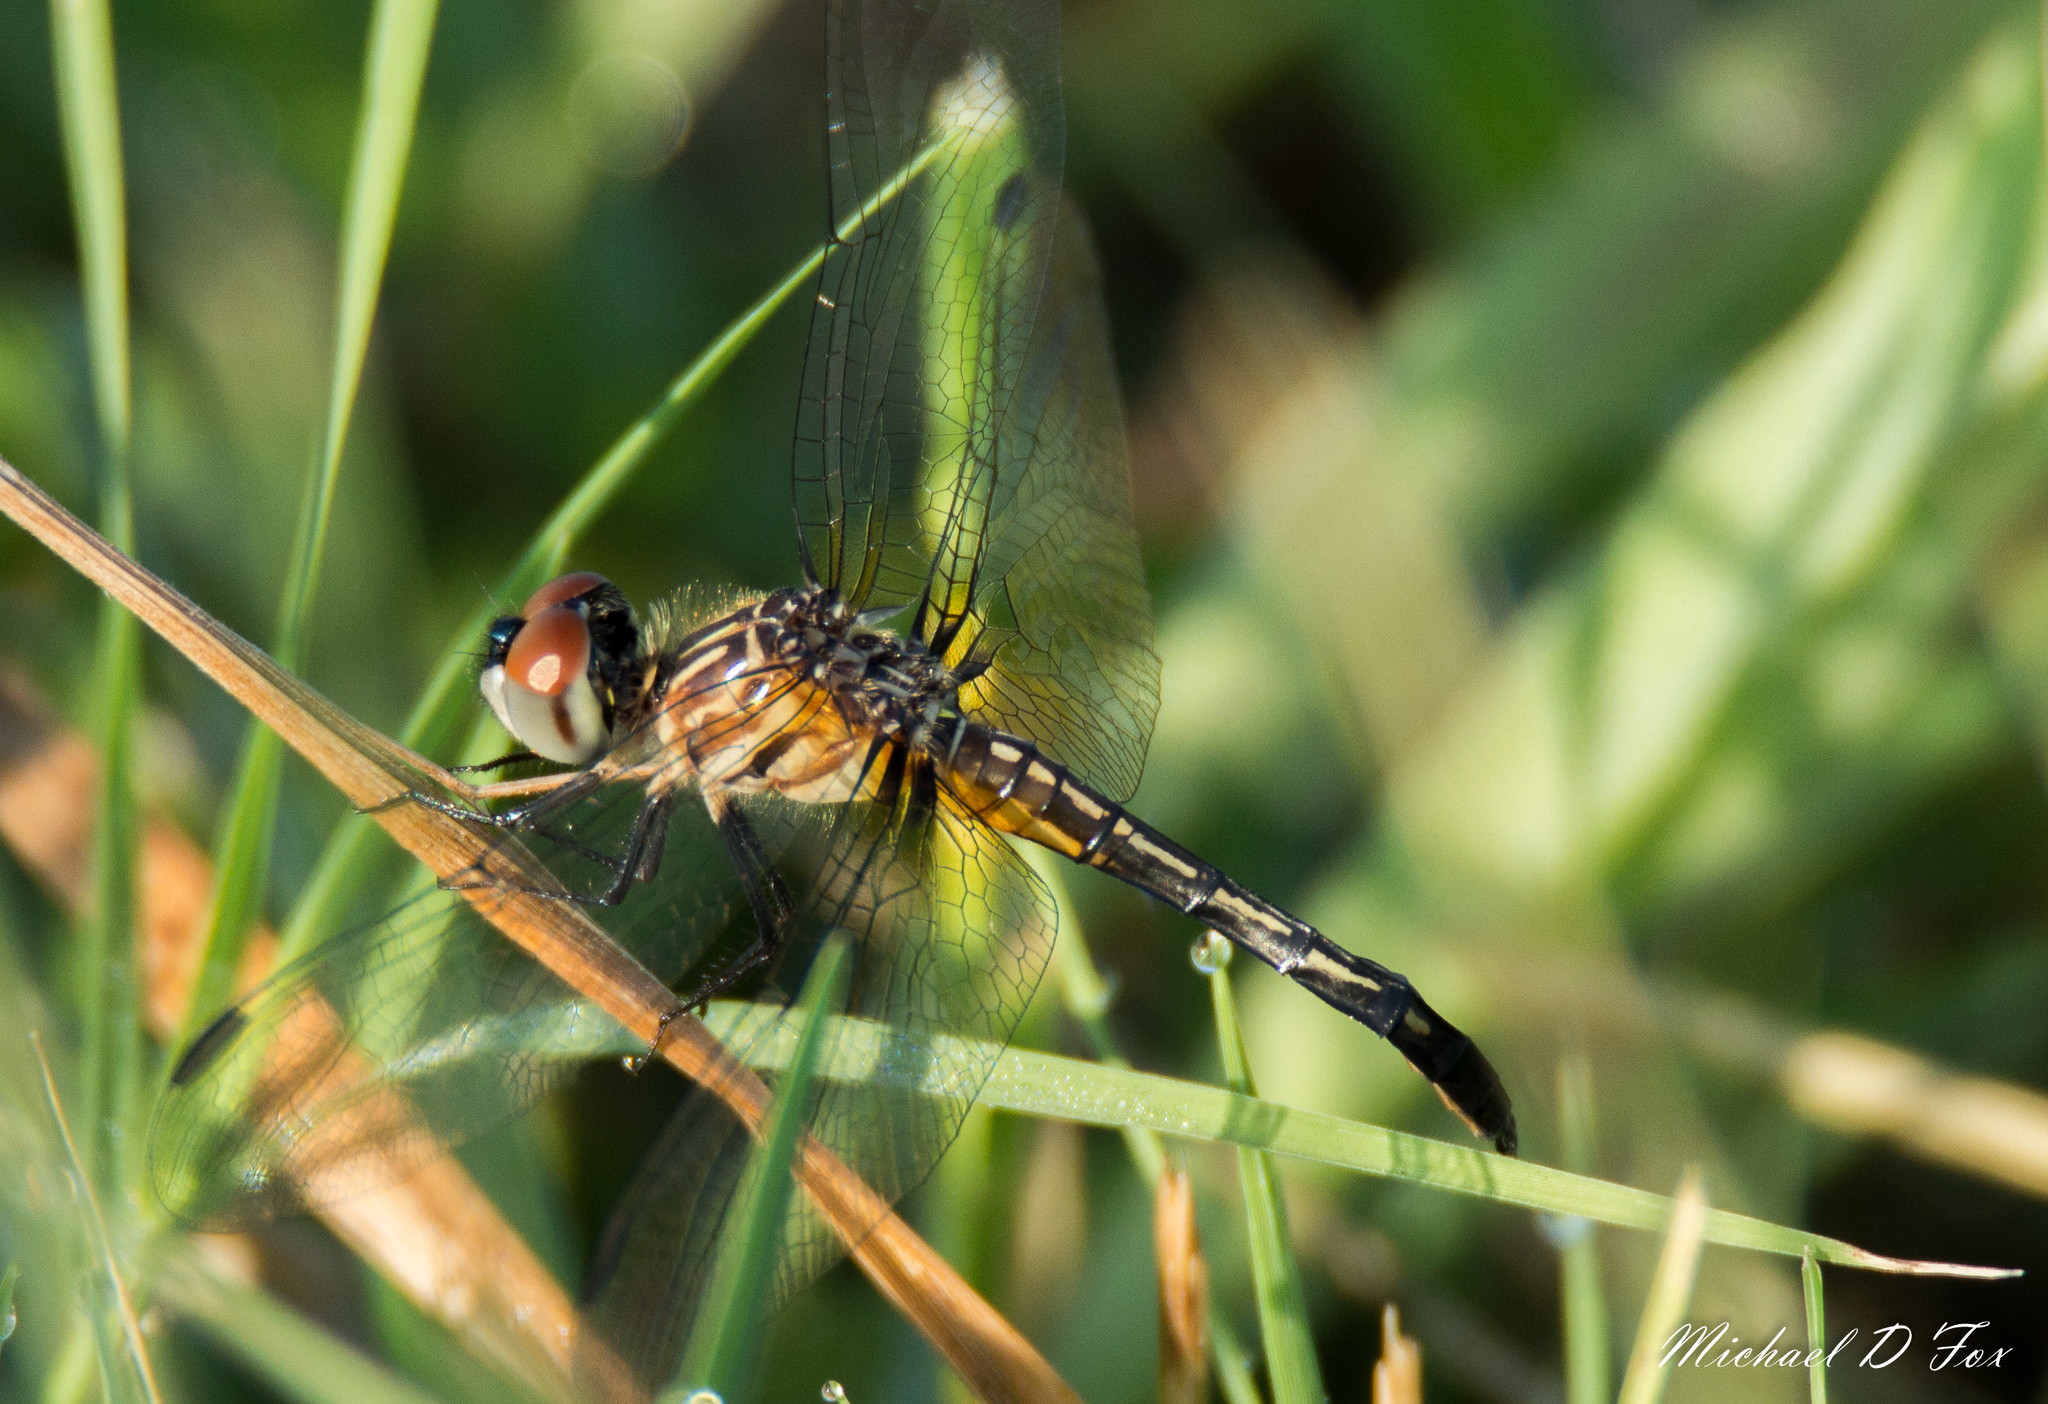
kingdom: Animalia
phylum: Arthropoda
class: Insecta
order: Odonata
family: Libellulidae
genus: Pachydiplax
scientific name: Pachydiplax longipennis
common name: Blue dasher
